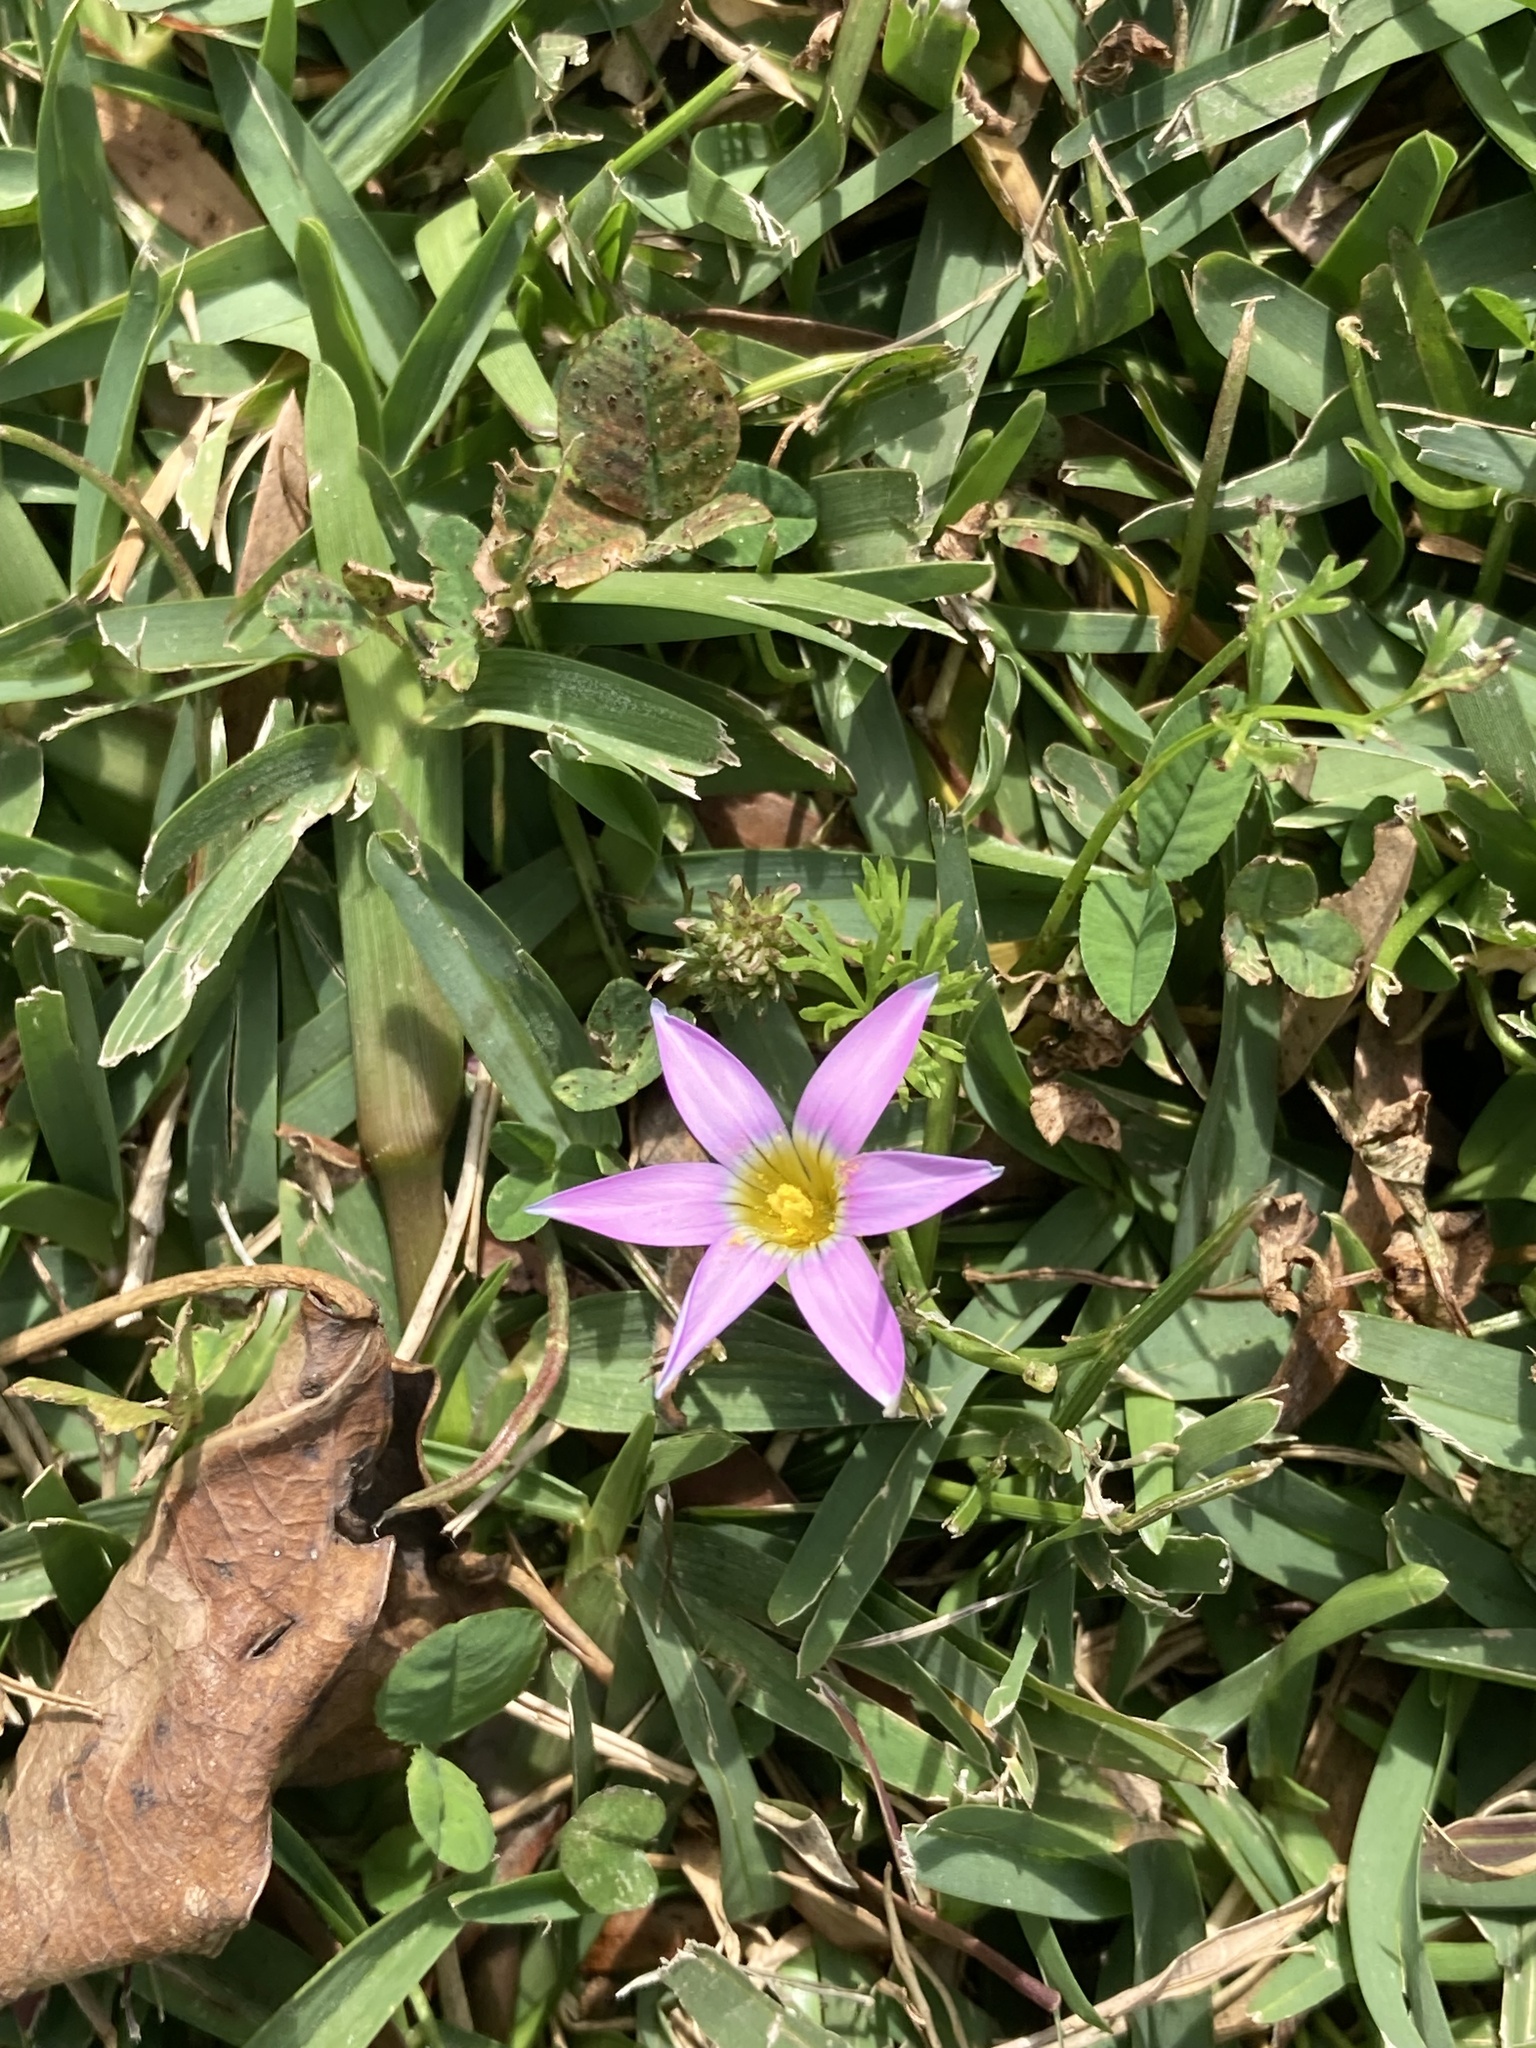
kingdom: Plantae
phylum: Tracheophyta
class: Liliopsida
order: Asparagales
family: Iridaceae
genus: Romulea
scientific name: Romulea rosea
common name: Oniongrass
